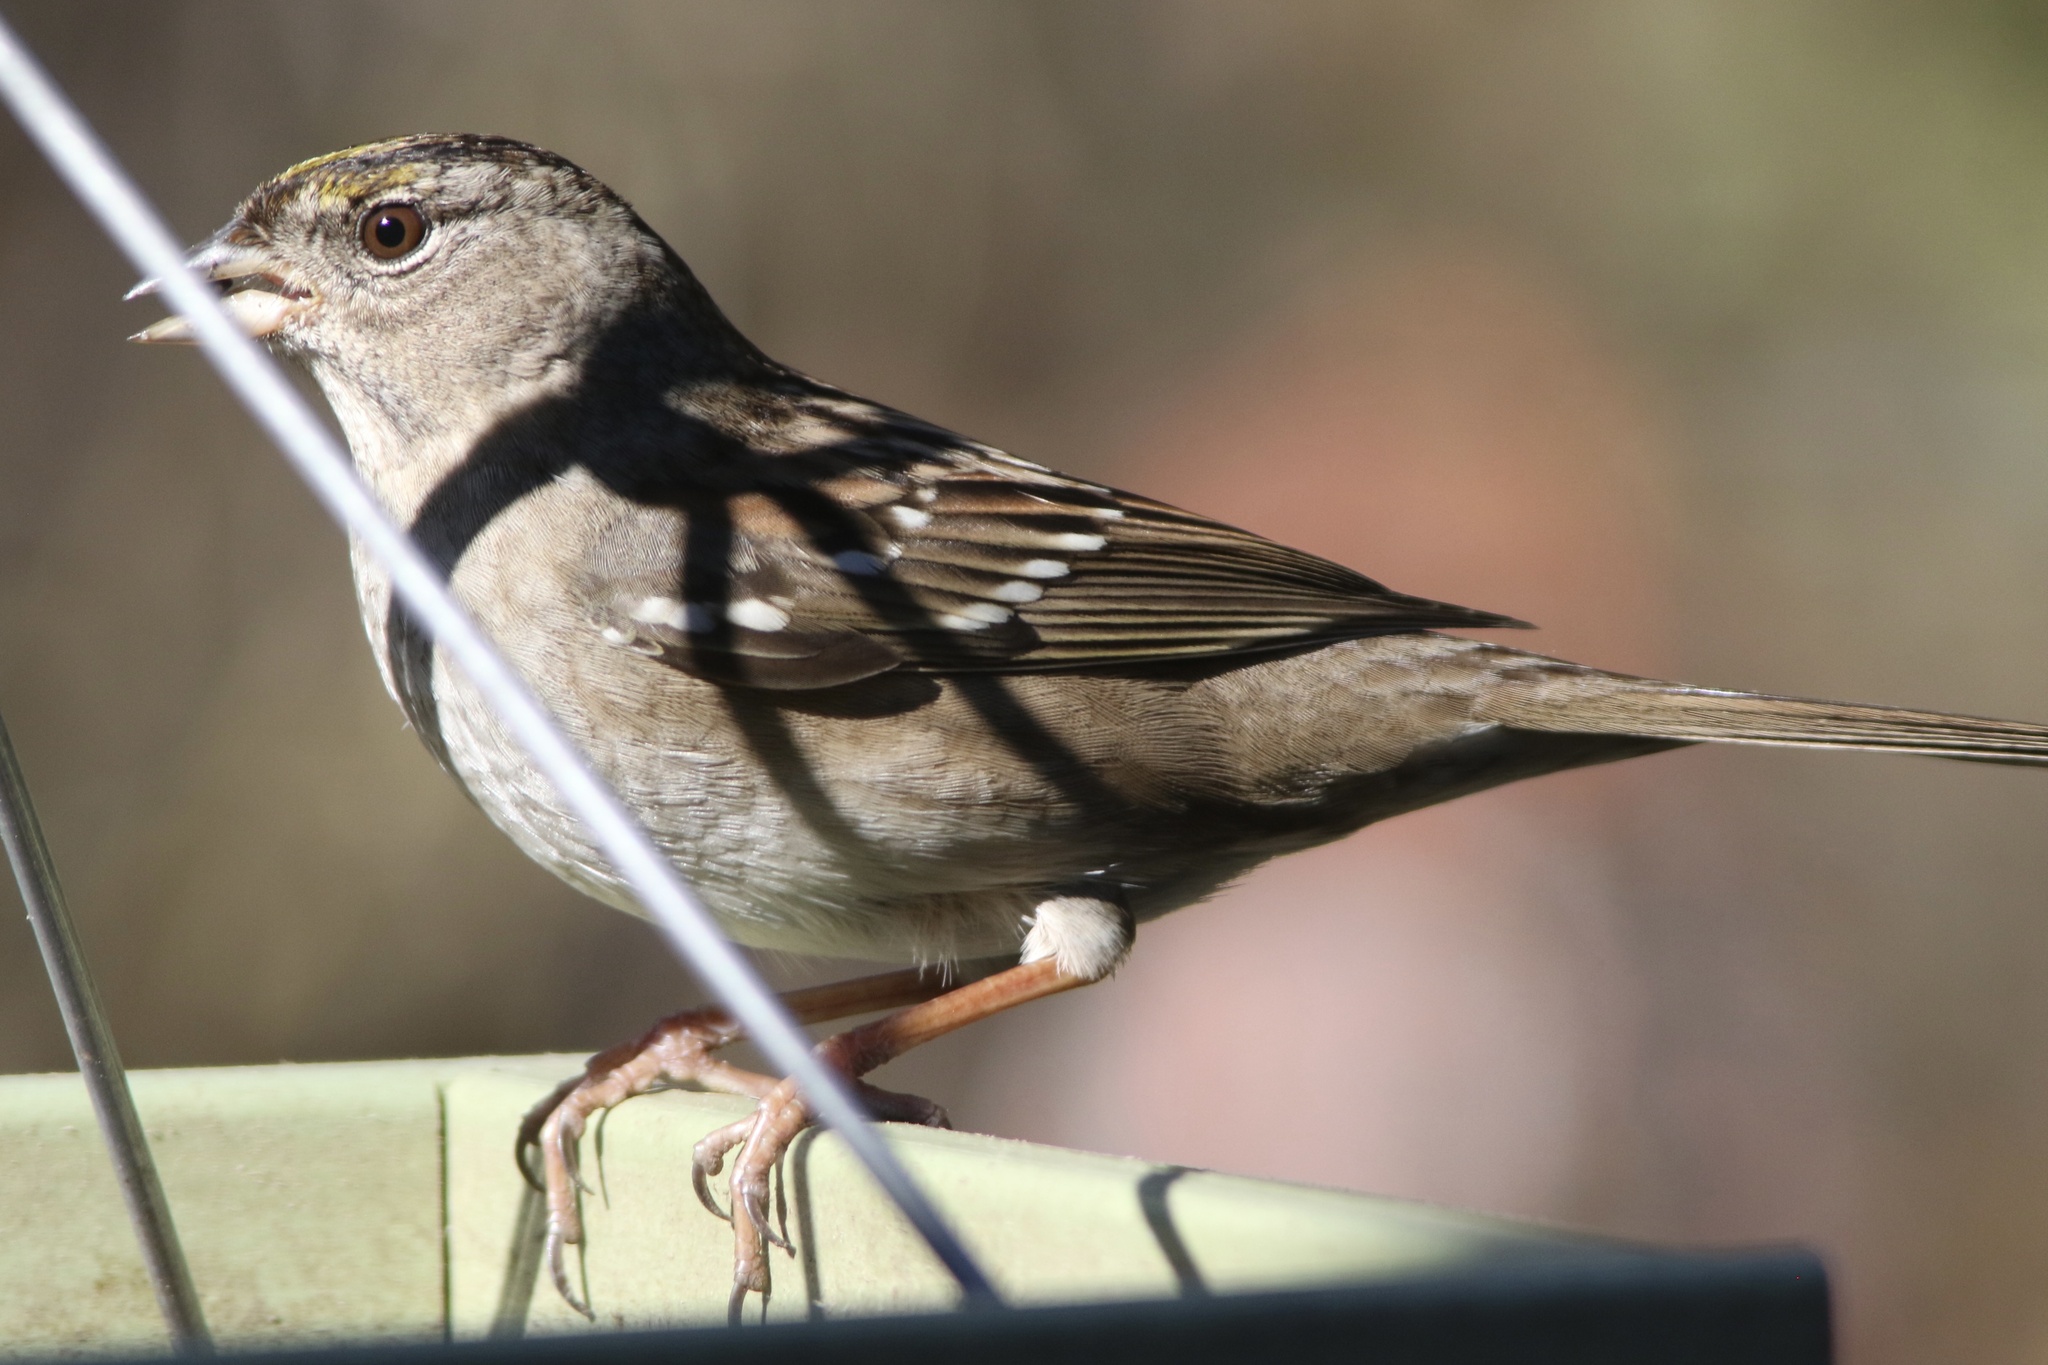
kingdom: Animalia
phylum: Chordata
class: Aves
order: Passeriformes
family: Passerellidae
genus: Zonotrichia
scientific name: Zonotrichia atricapilla
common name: Golden-crowned sparrow
